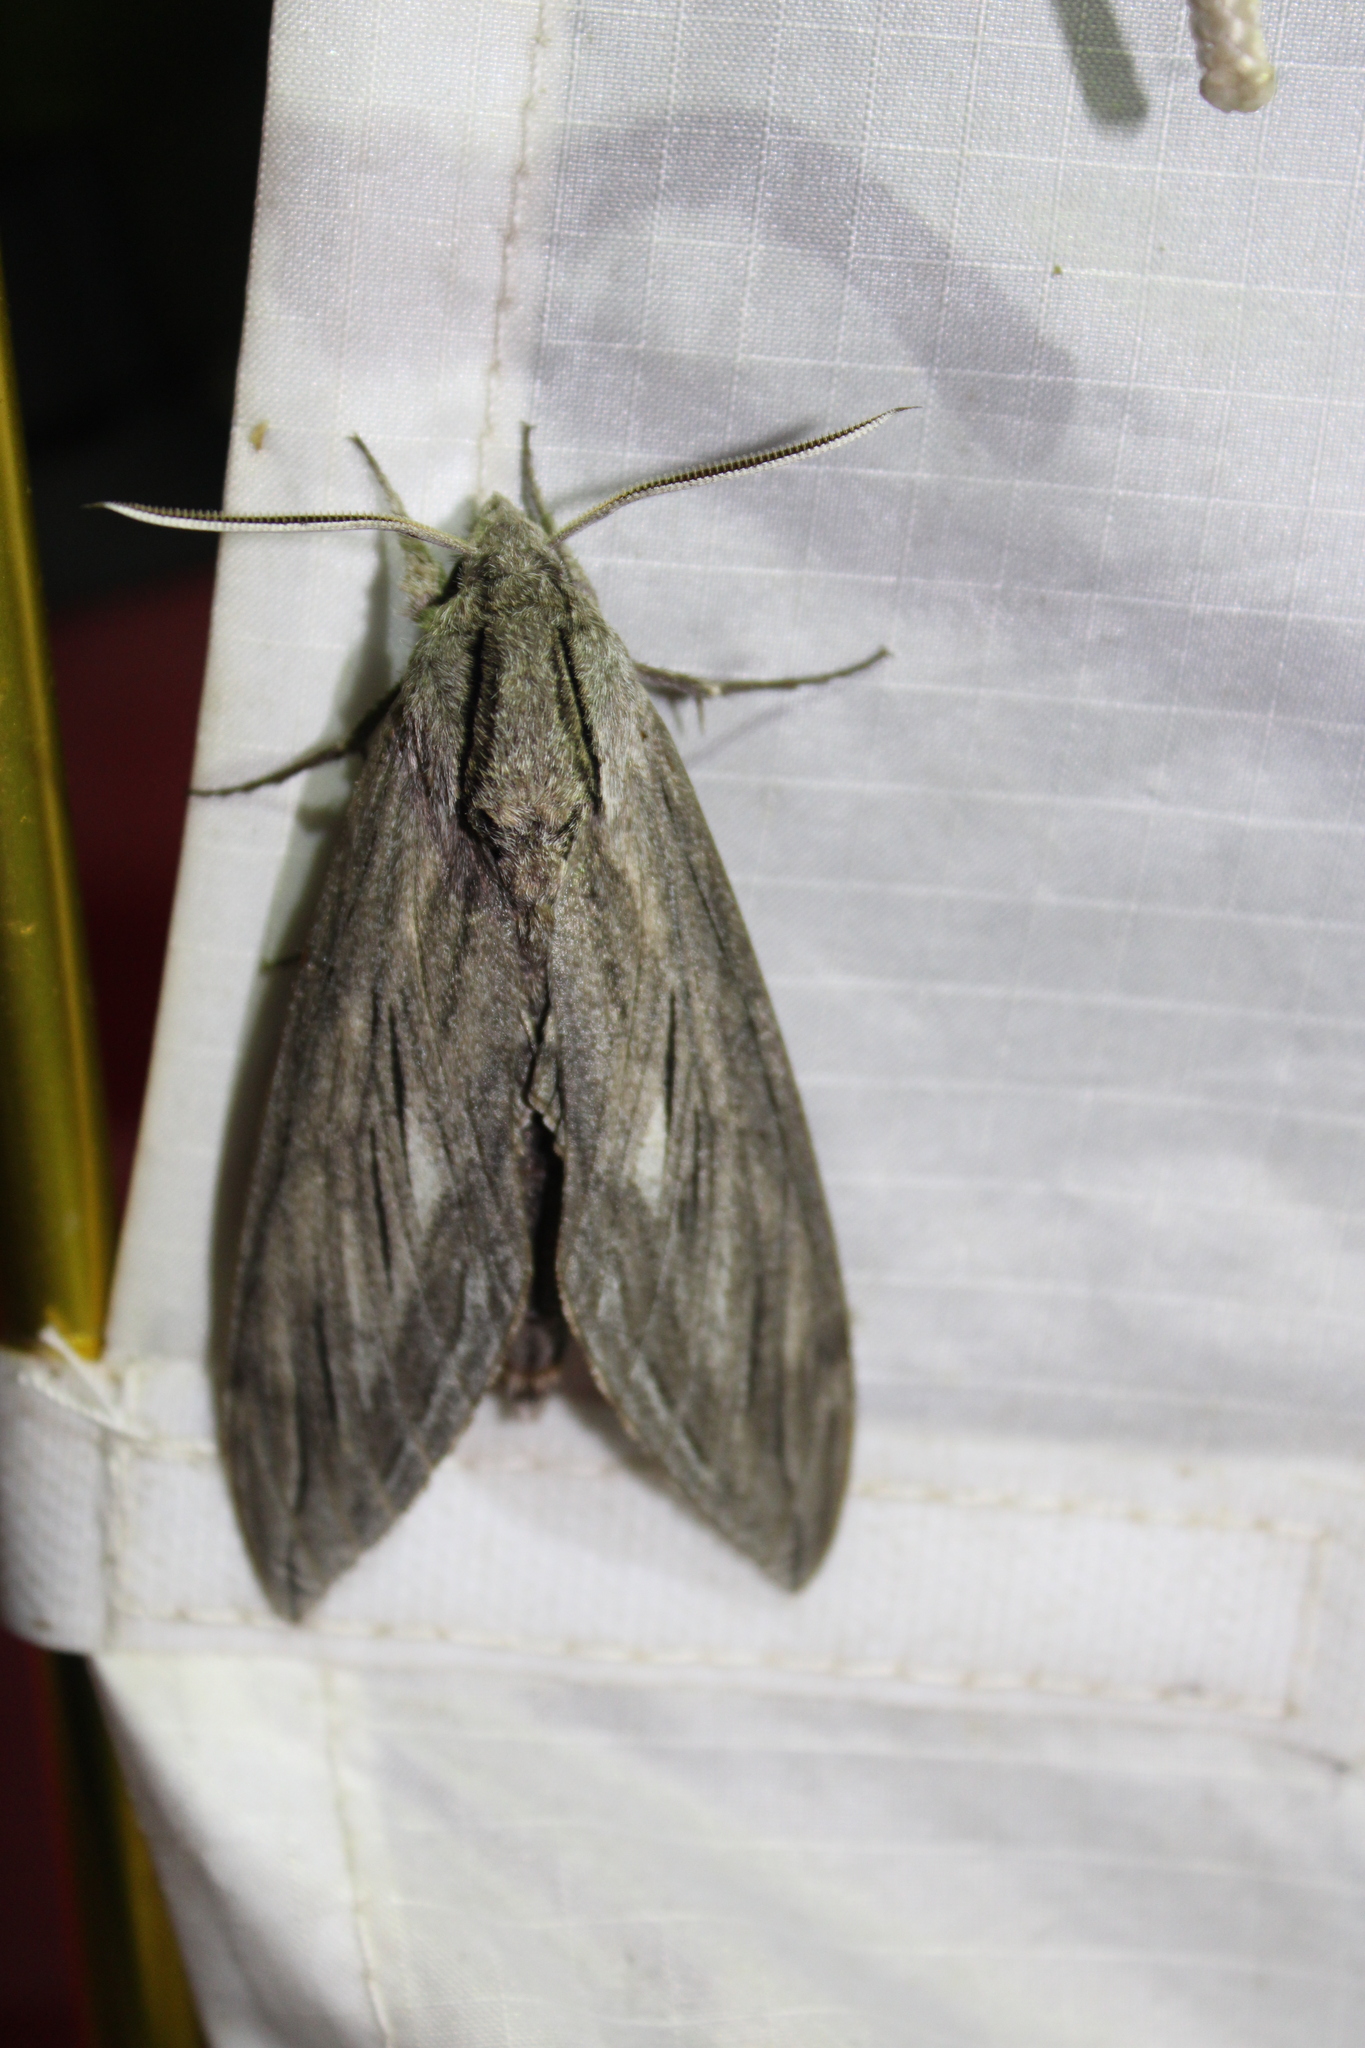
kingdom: Animalia
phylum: Arthropoda
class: Insecta
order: Lepidoptera
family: Sphingidae
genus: Sphinx
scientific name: Sphinx chersis
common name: Great ash sphinx
